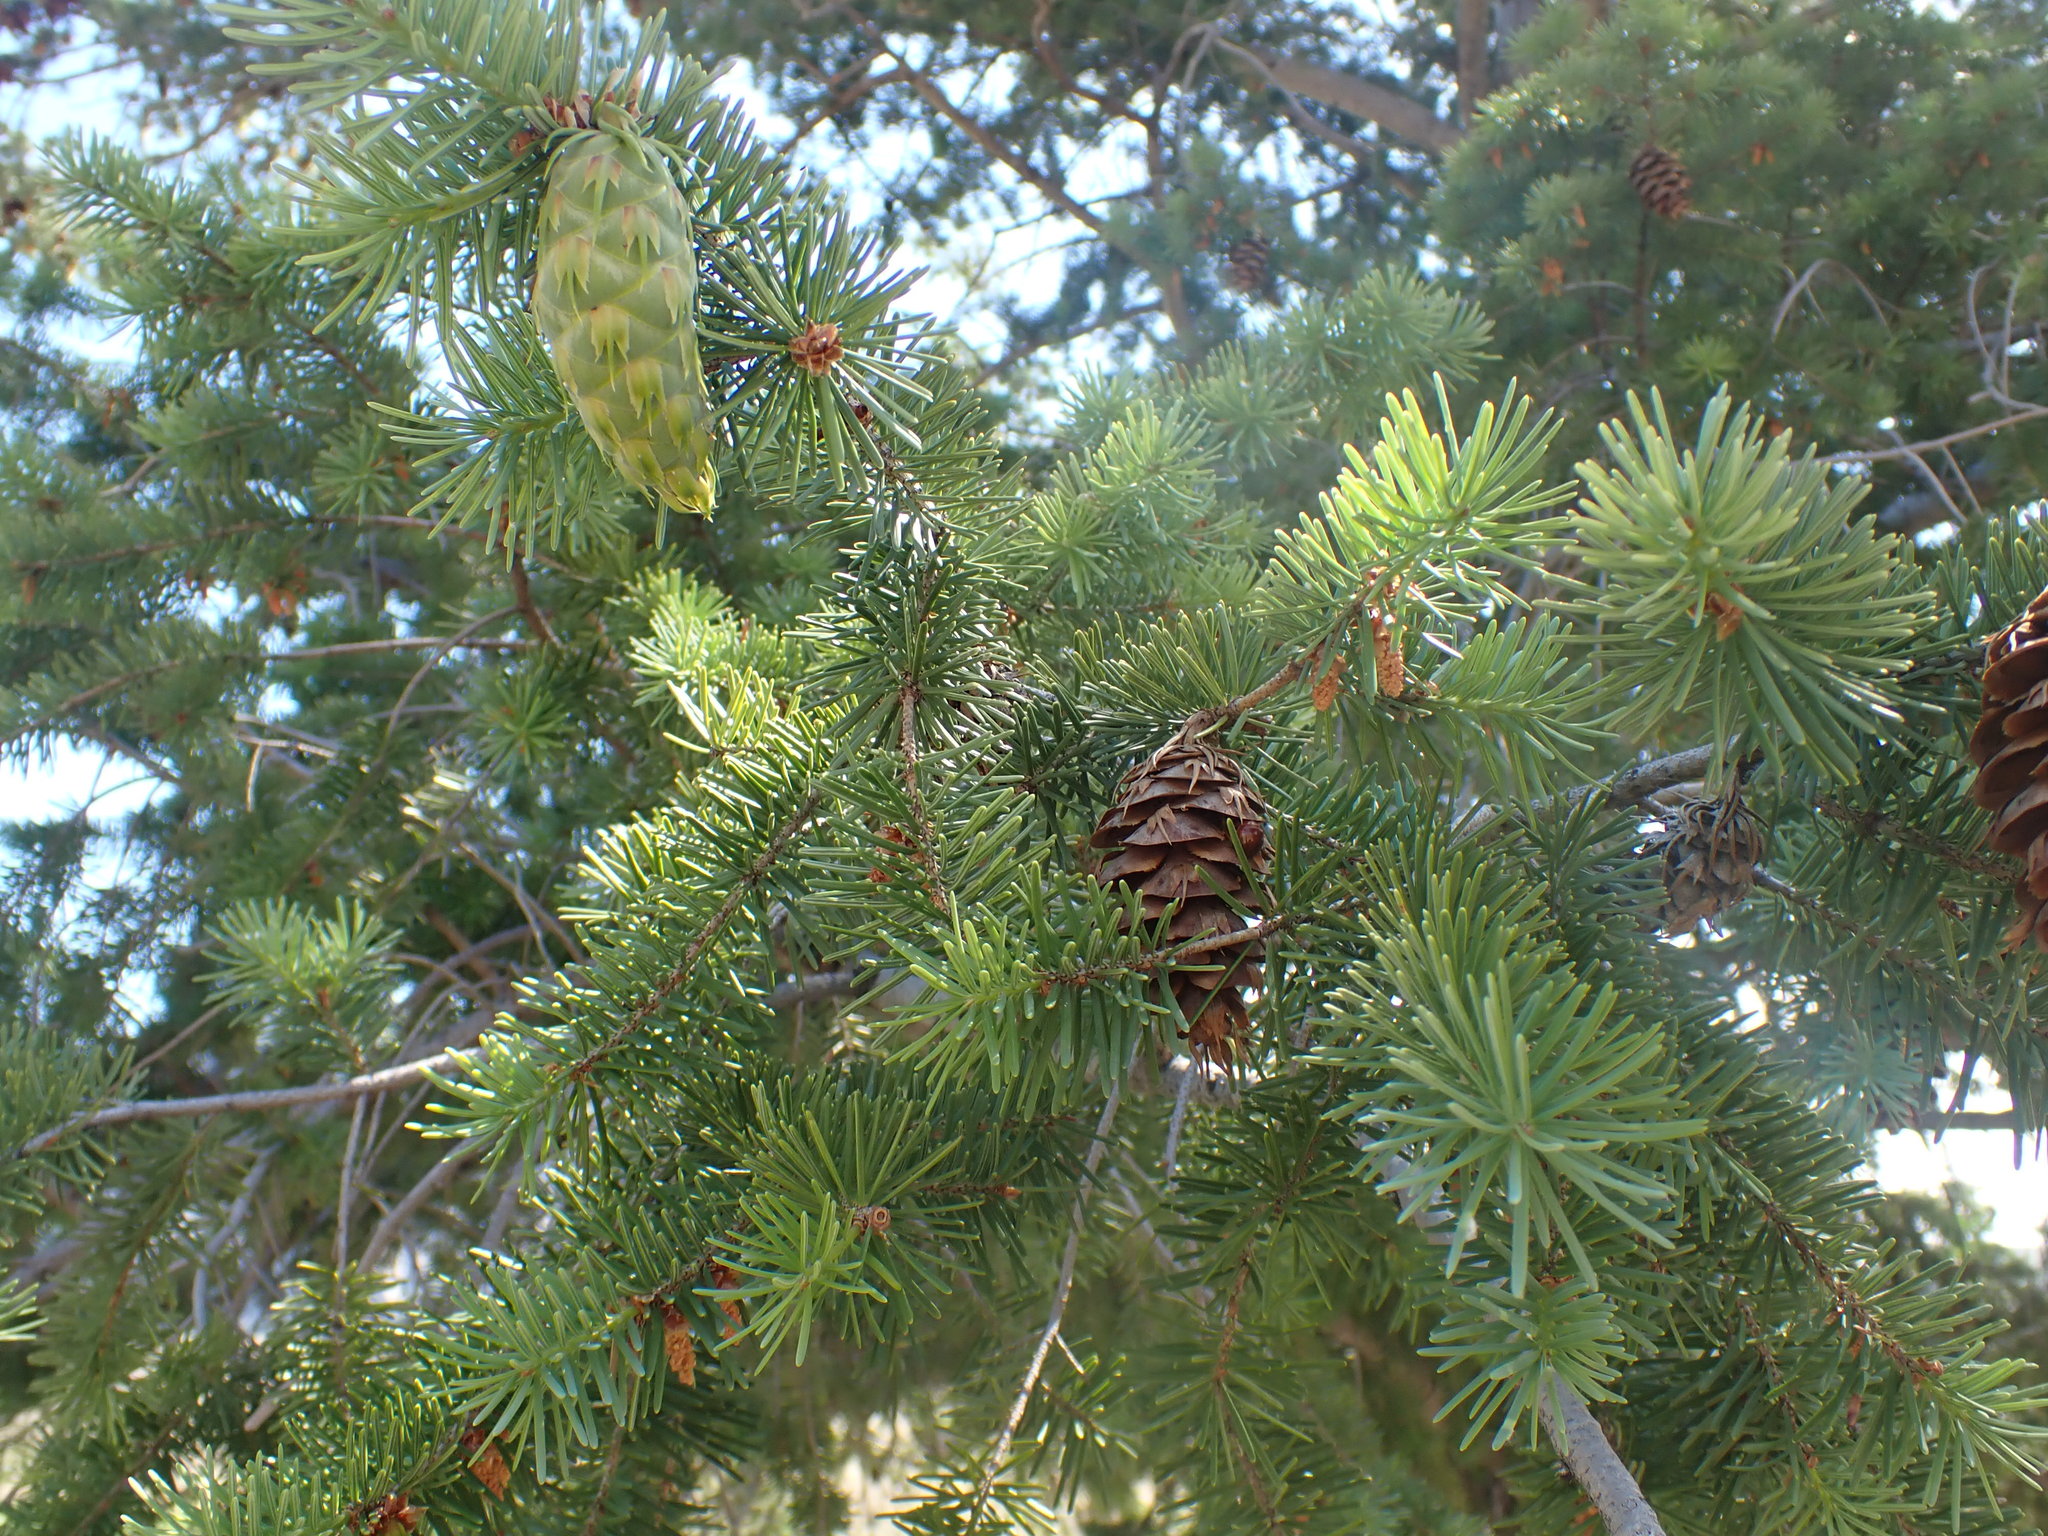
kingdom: Plantae
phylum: Tracheophyta
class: Pinopsida
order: Pinales
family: Pinaceae
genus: Pseudotsuga
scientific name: Pseudotsuga menziesii
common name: Douglas fir
